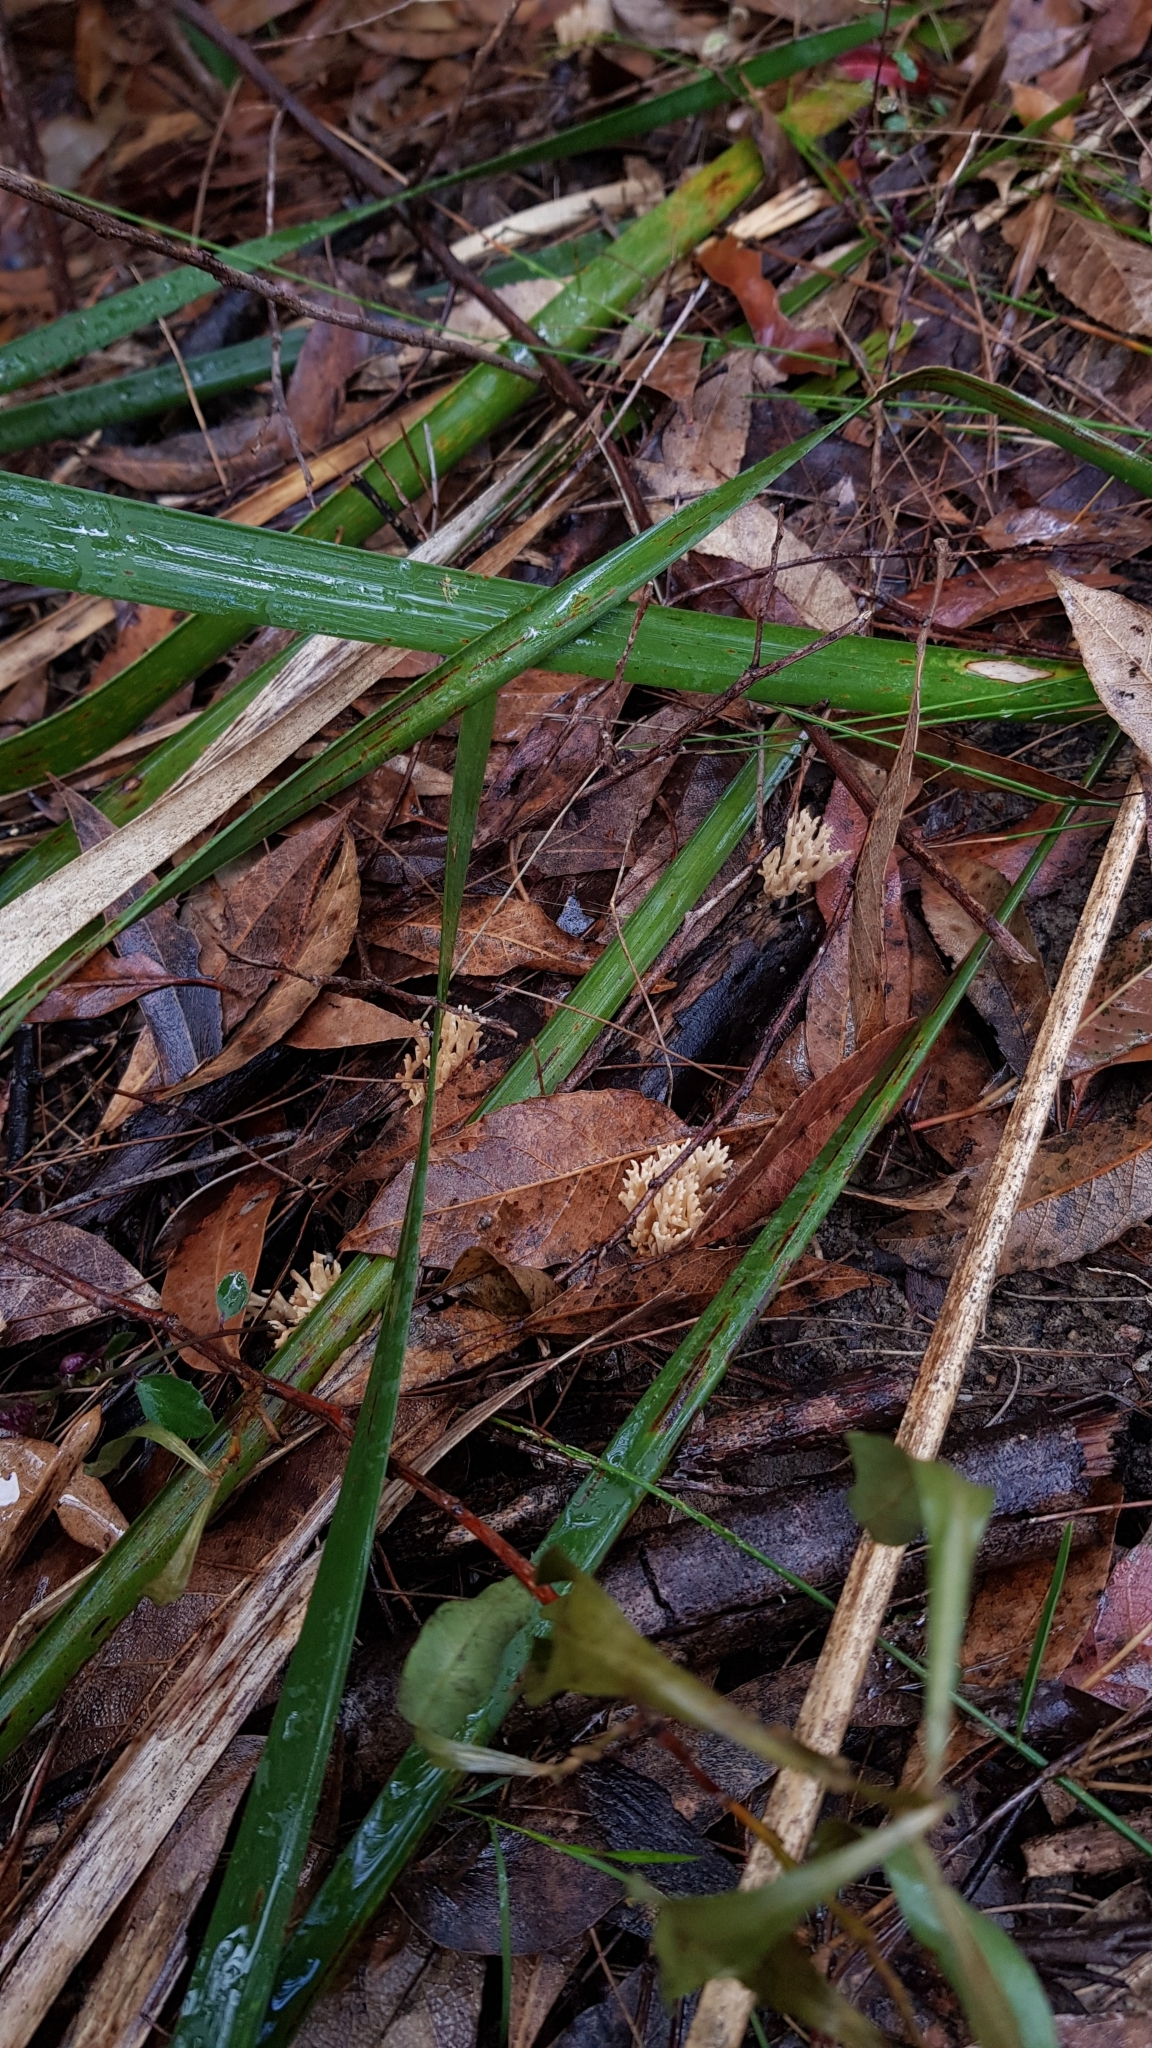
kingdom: Fungi
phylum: Basidiomycota
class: Agaricomycetes
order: Gomphales
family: Gomphaceae
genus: Ramaria
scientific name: Ramaria filicicola
